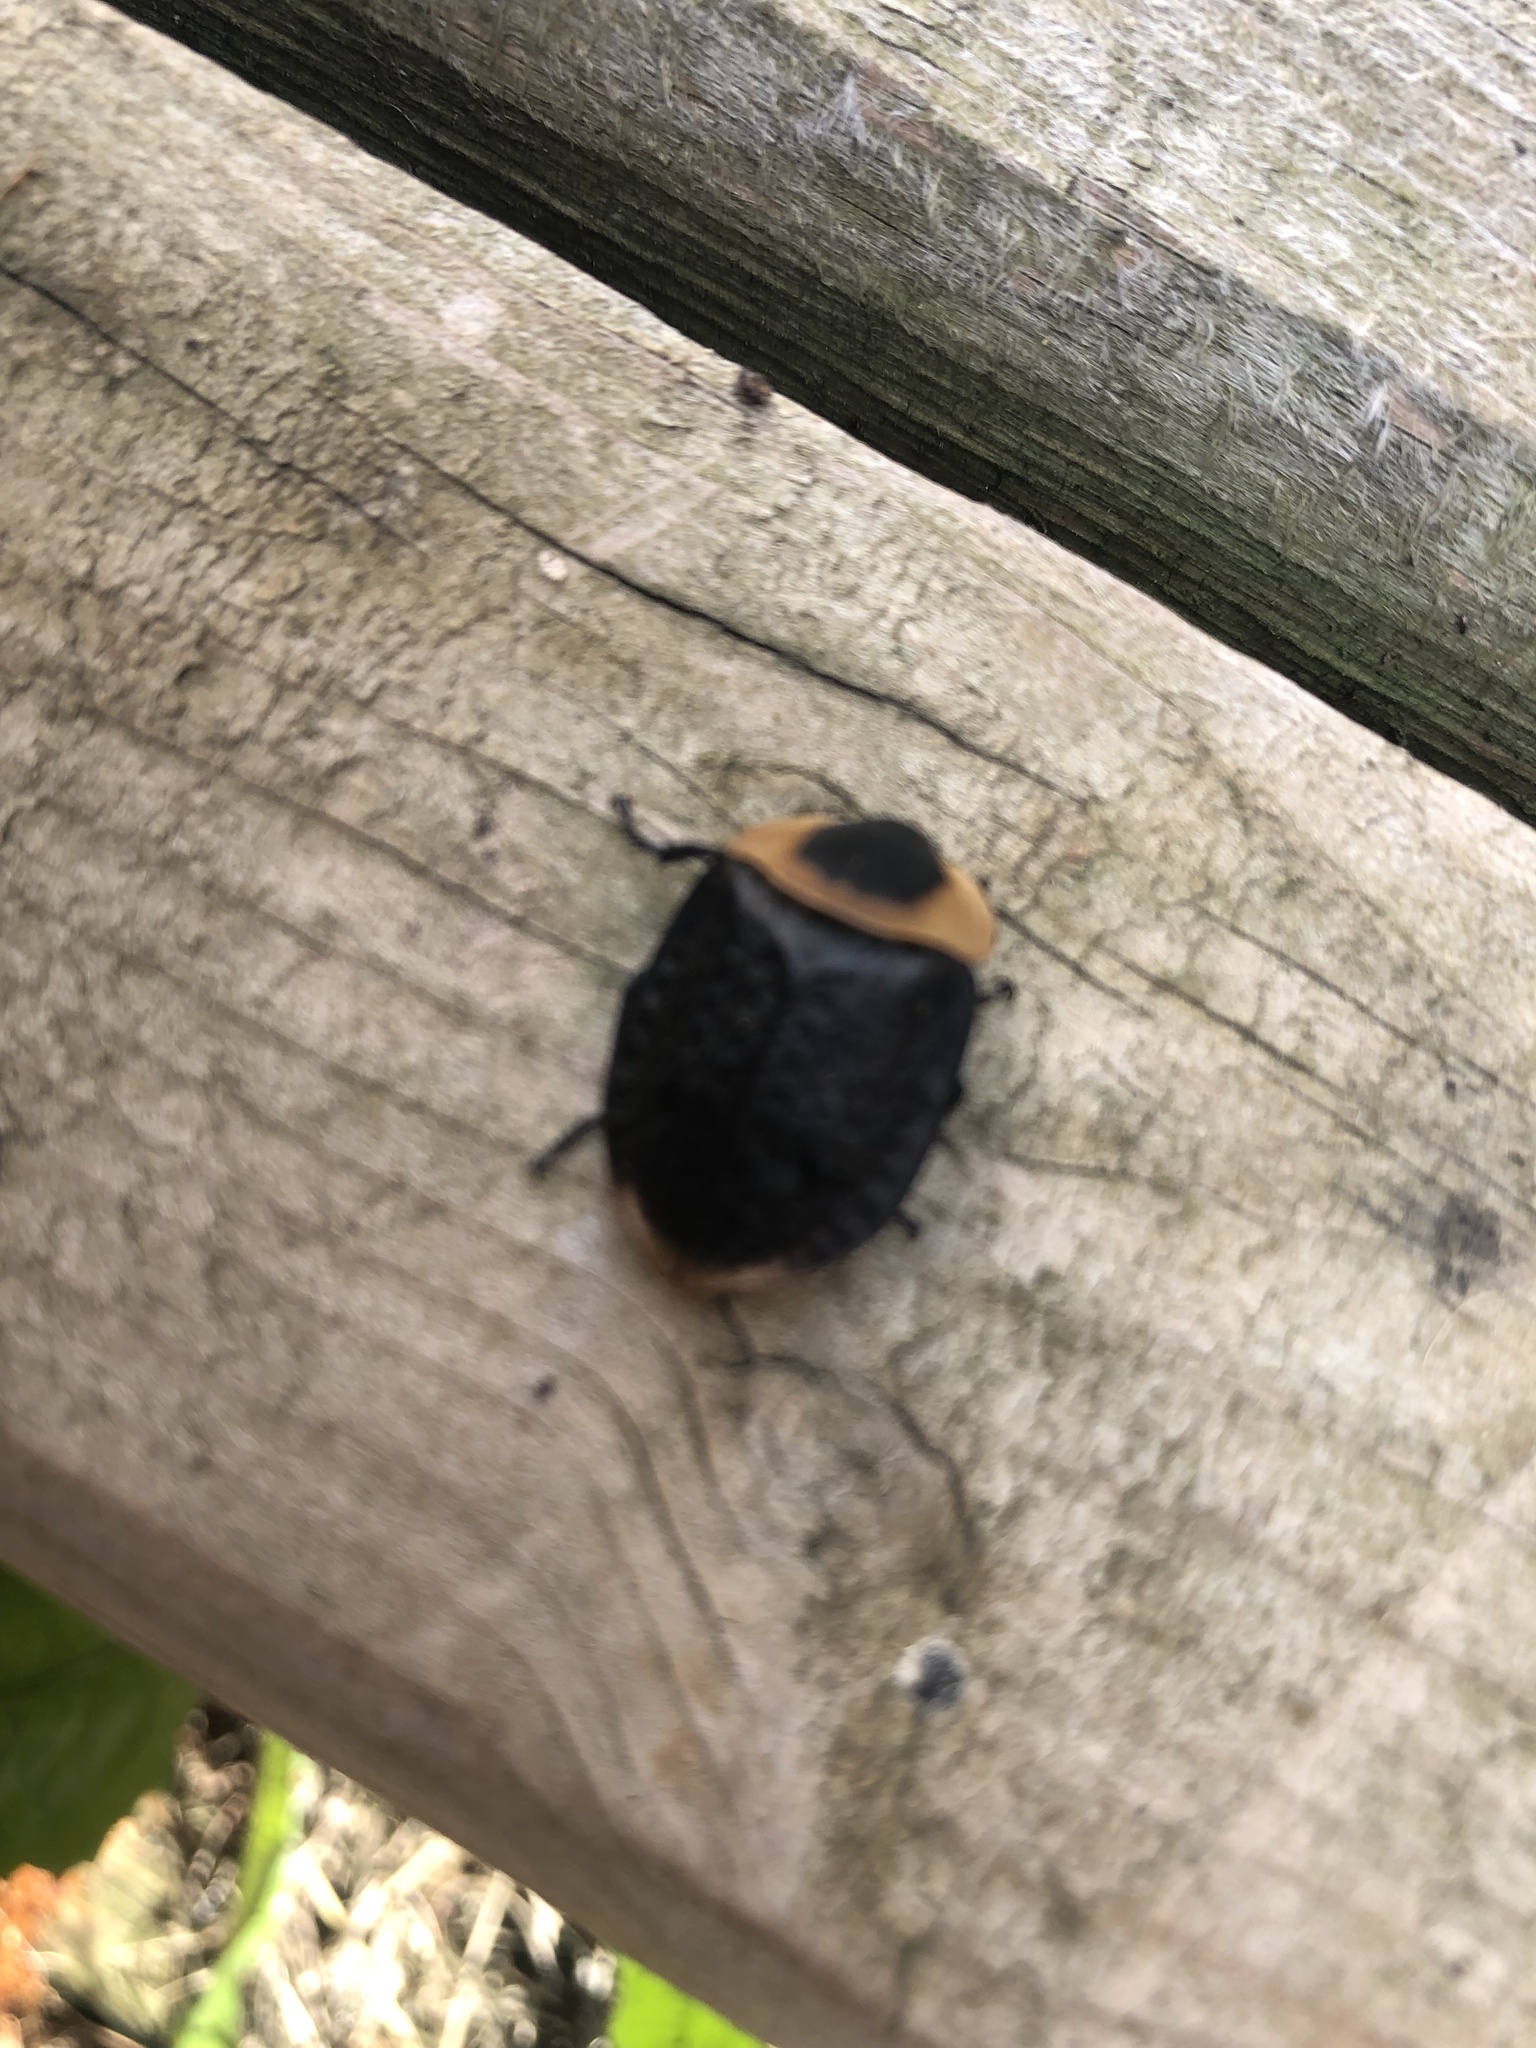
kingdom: Animalia
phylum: Arthropoda
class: Insecta
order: Coleoptera
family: Staphylinidae
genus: Necrophila
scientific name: Necrophila americana
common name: American carrion beetle
